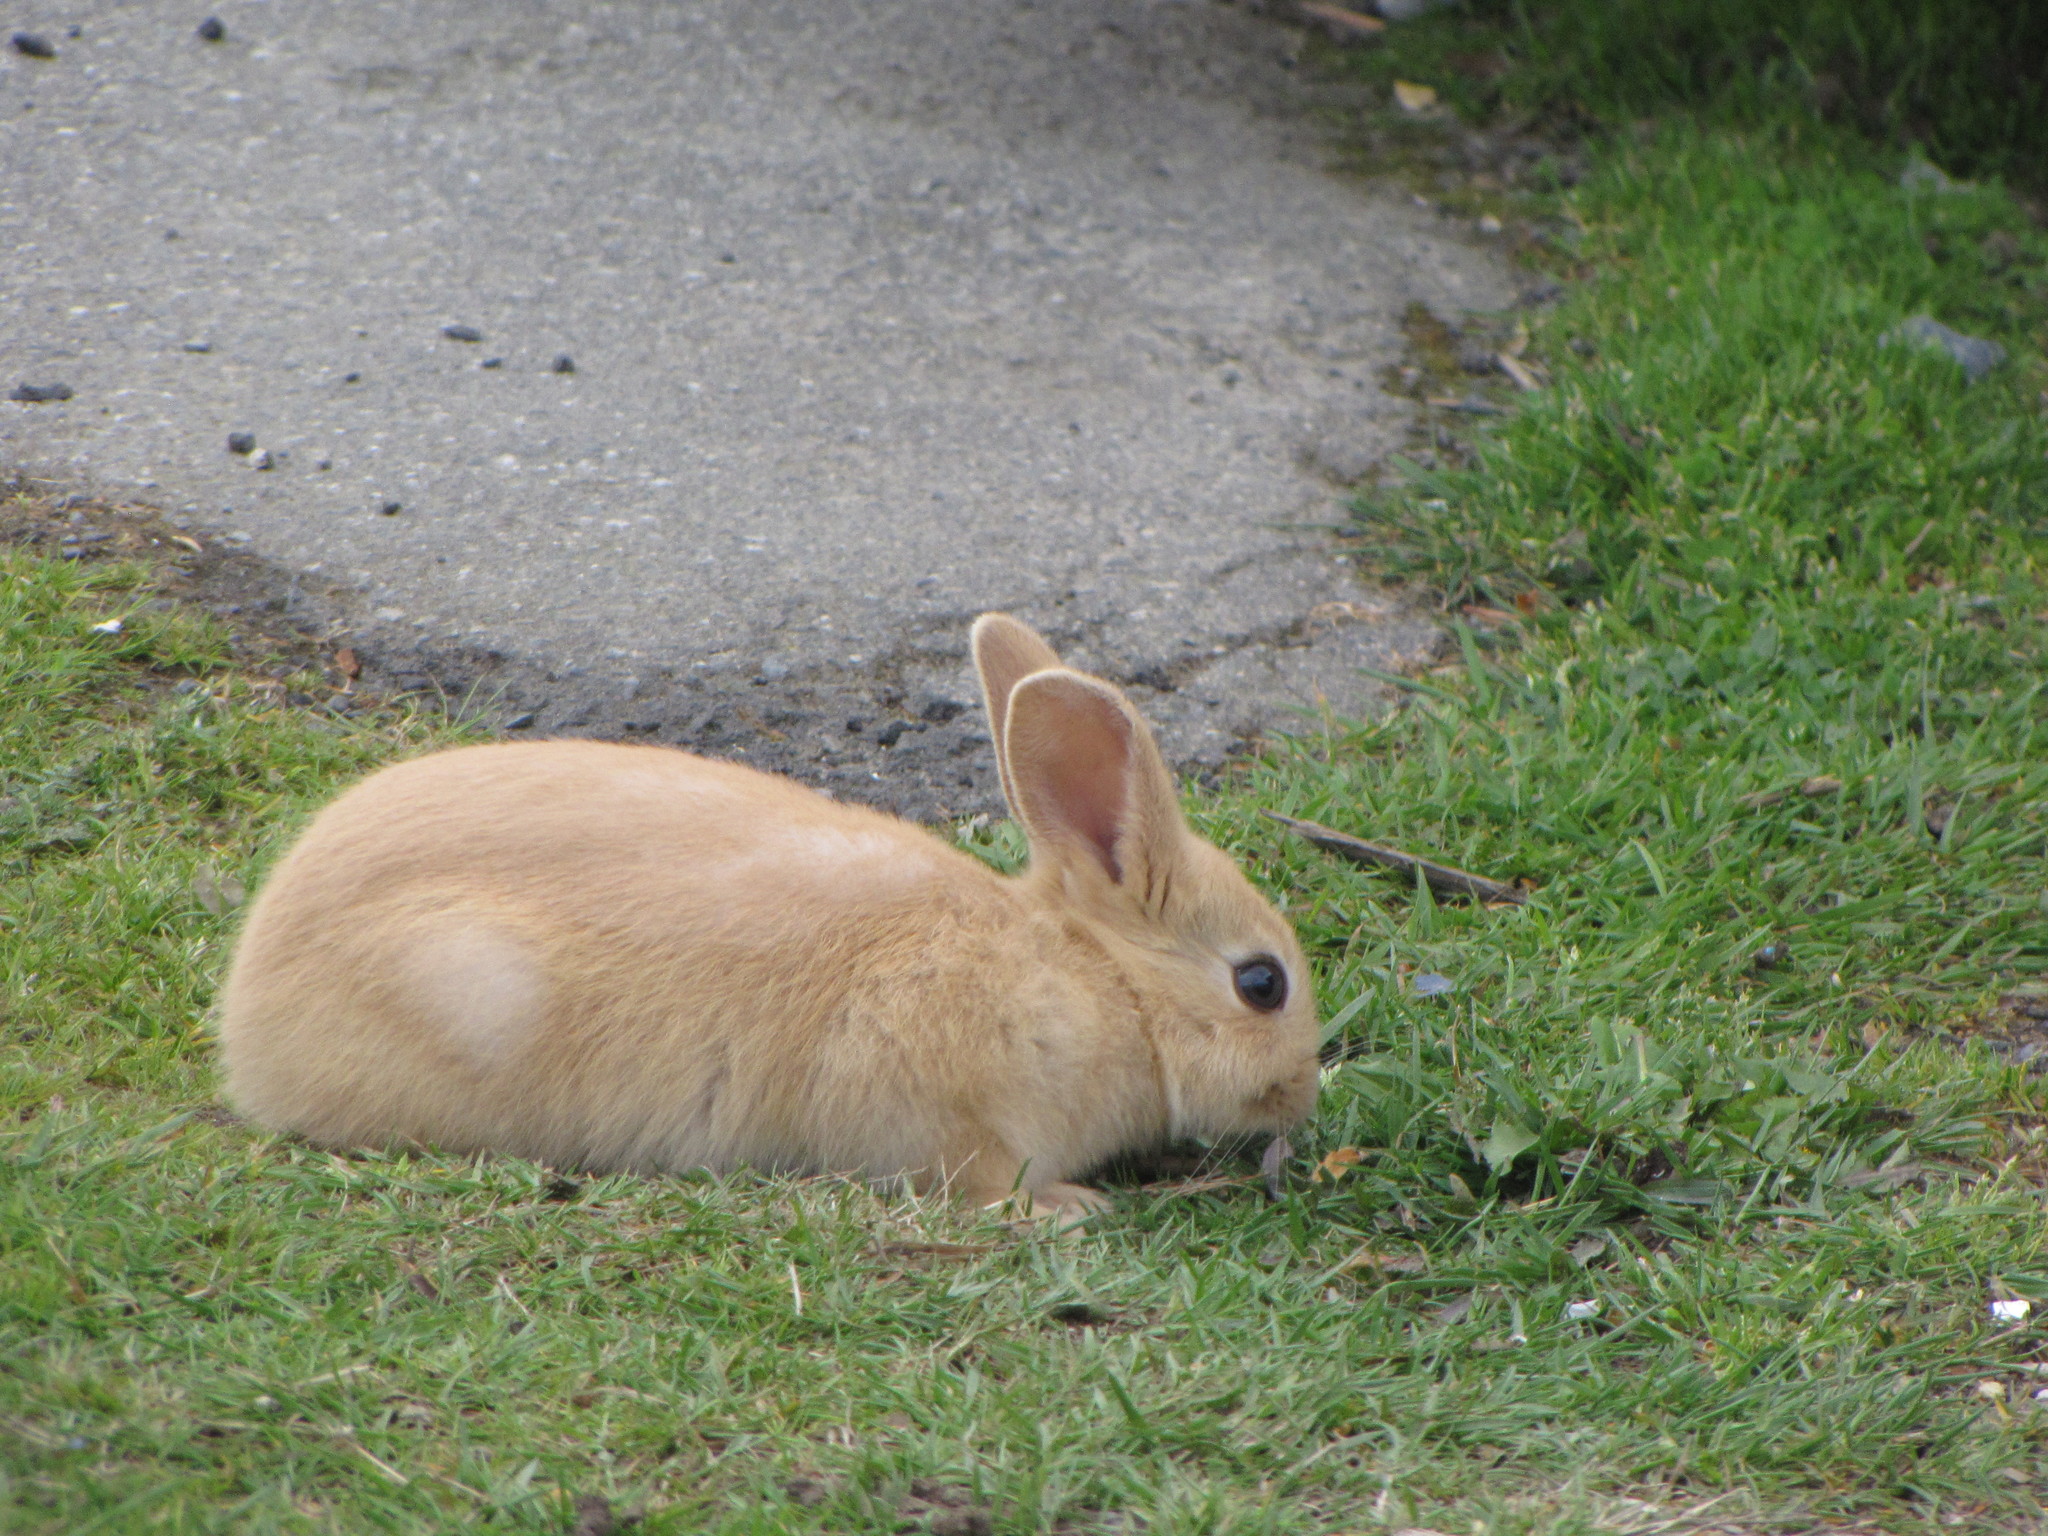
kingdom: Animalia
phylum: Chordata
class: Mammalia
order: Lagomorpha
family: Leporidae
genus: Oryctolagus
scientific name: Oryctolagus cuniculus
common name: European rabbit
